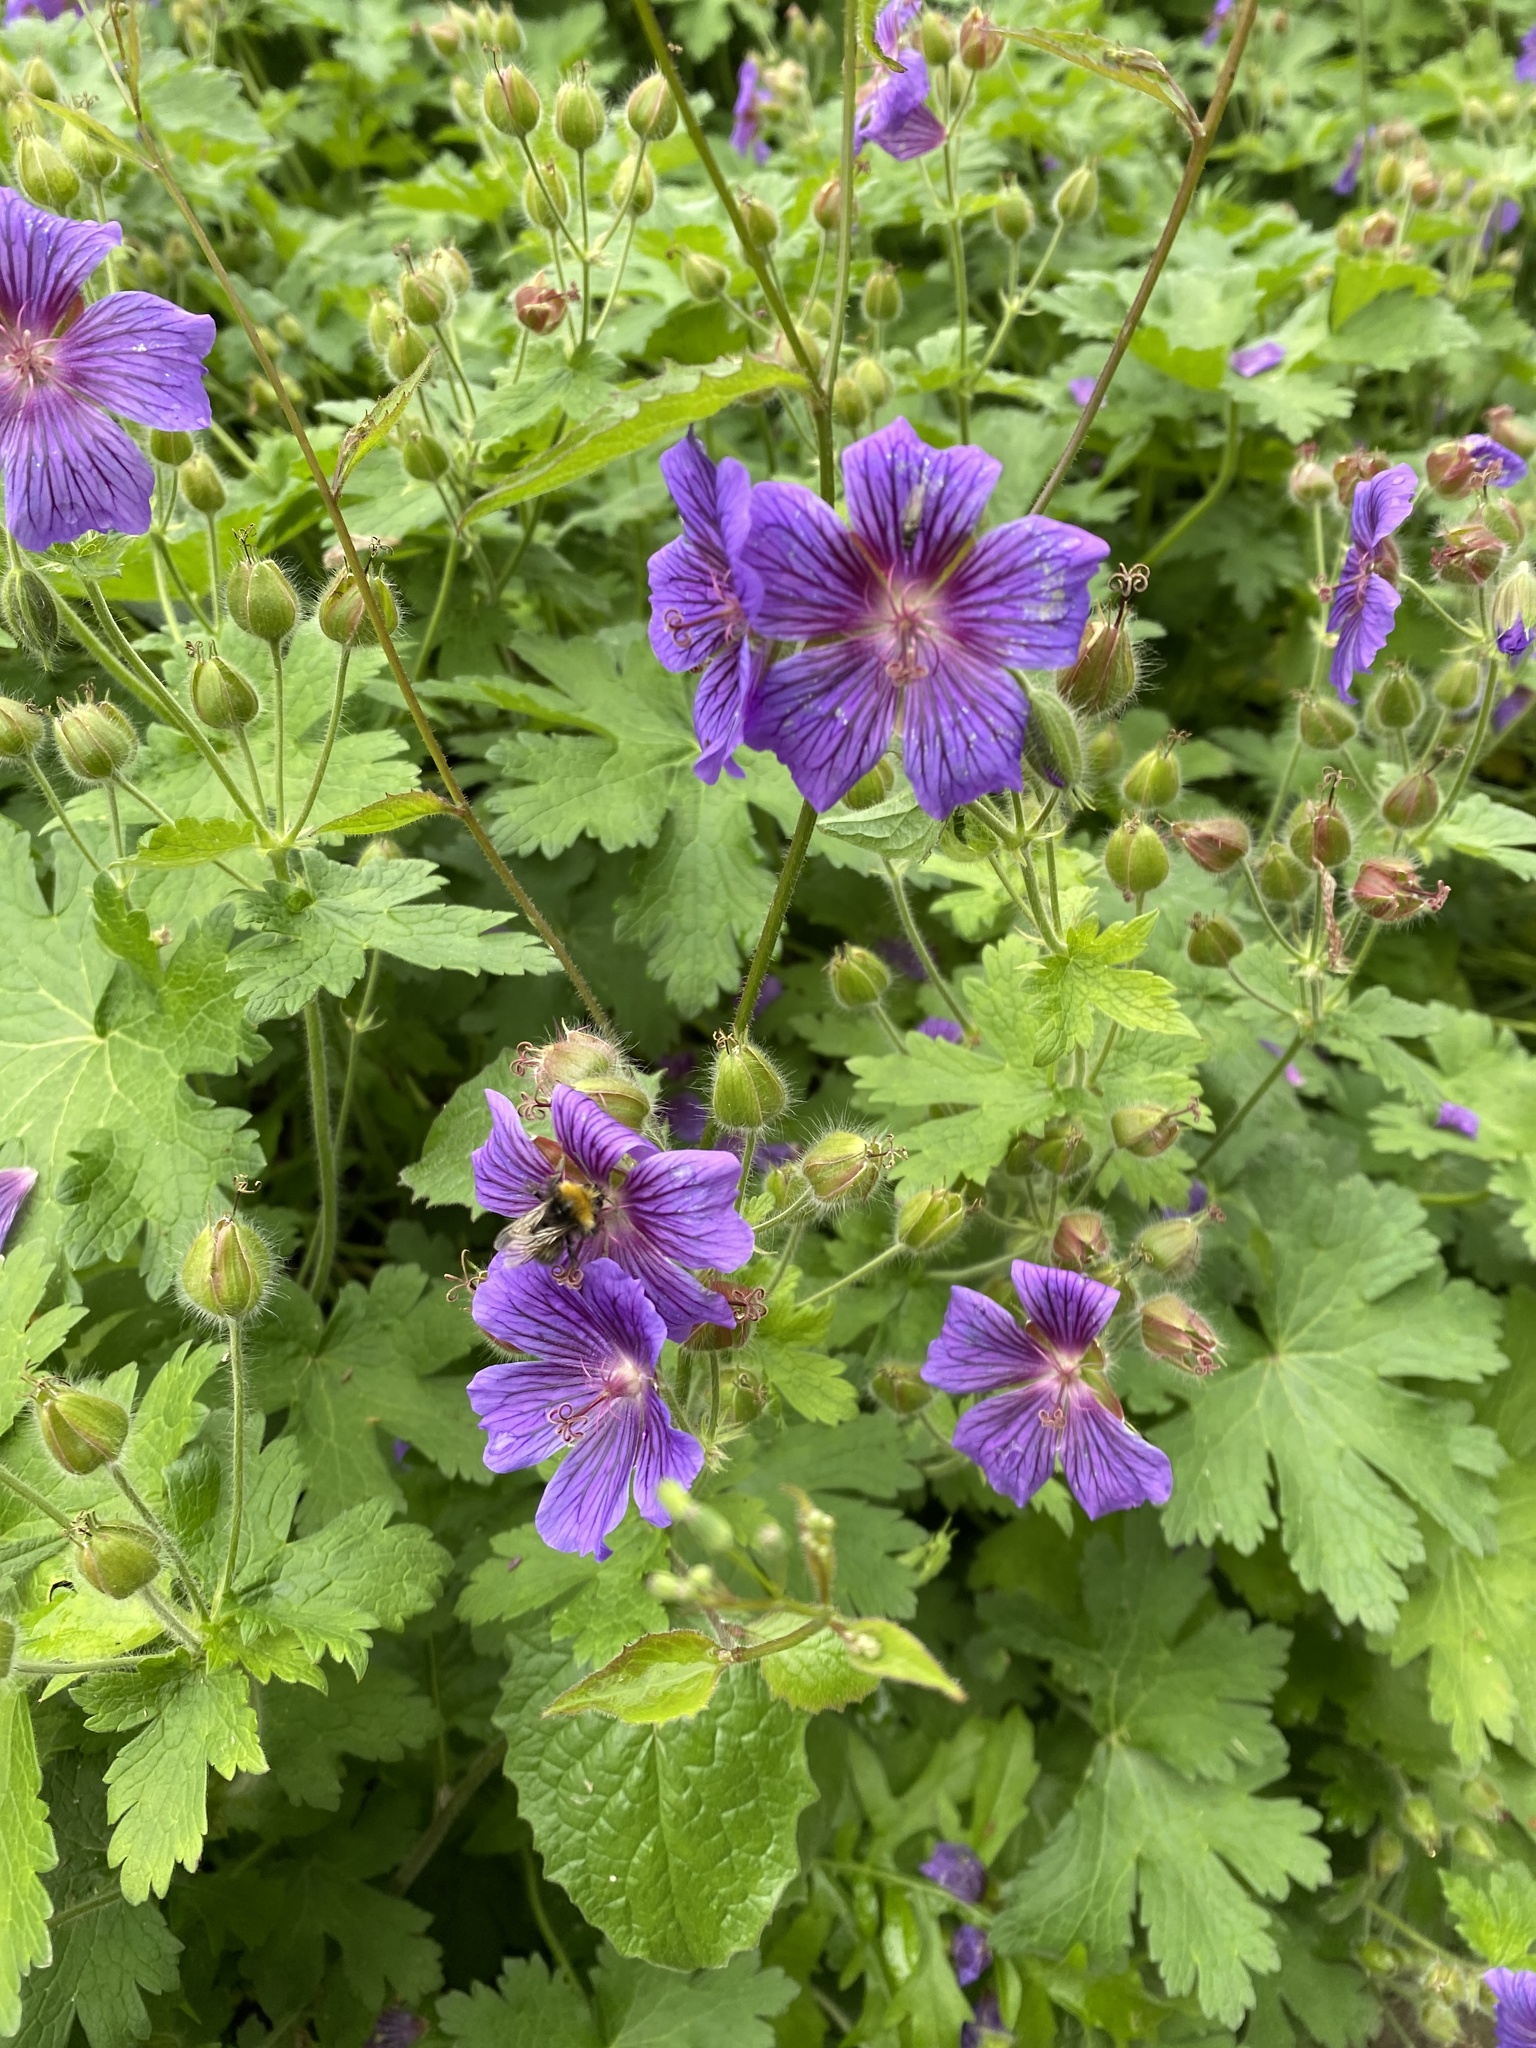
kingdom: Plantae
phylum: Tracheophyta
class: Magnoliopsida
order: Geraniales
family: Geraniaceae
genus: Geranium
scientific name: Geranium magnificum
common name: Purple crane's-bill
